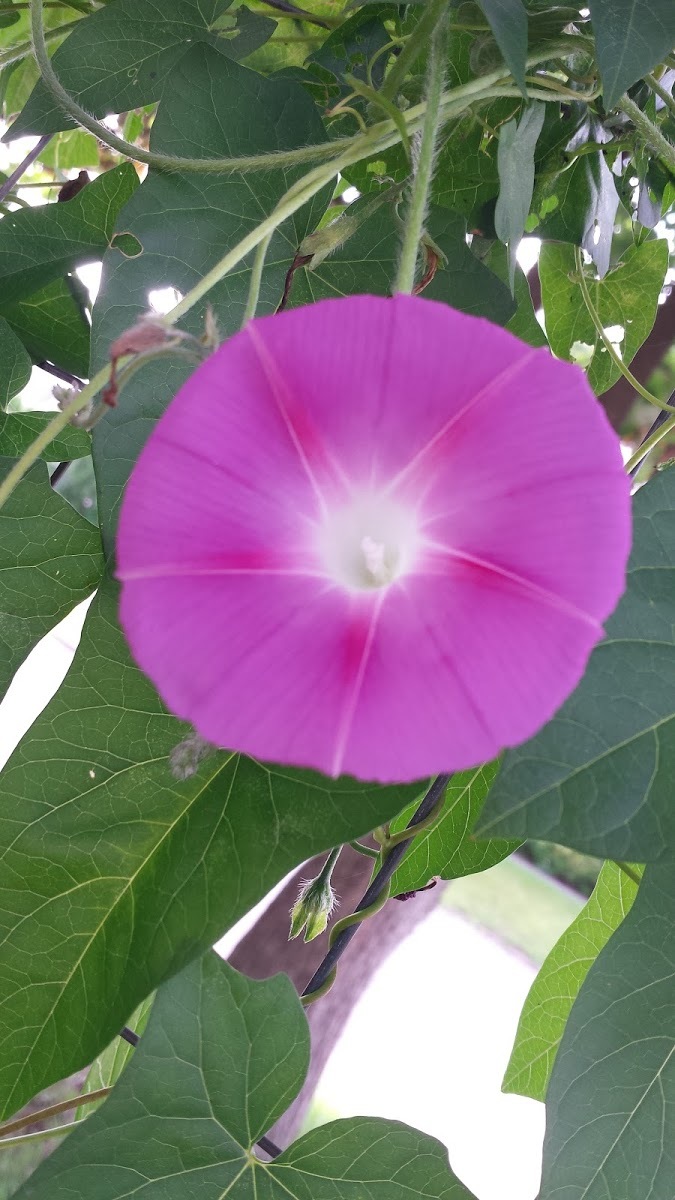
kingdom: Plantae
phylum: Tracheophyta
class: Magnoliopsida
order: Solanales
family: Convolvulaceae
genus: Ipomoea
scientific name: Ipomoea purpurea
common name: Common morning-glory
